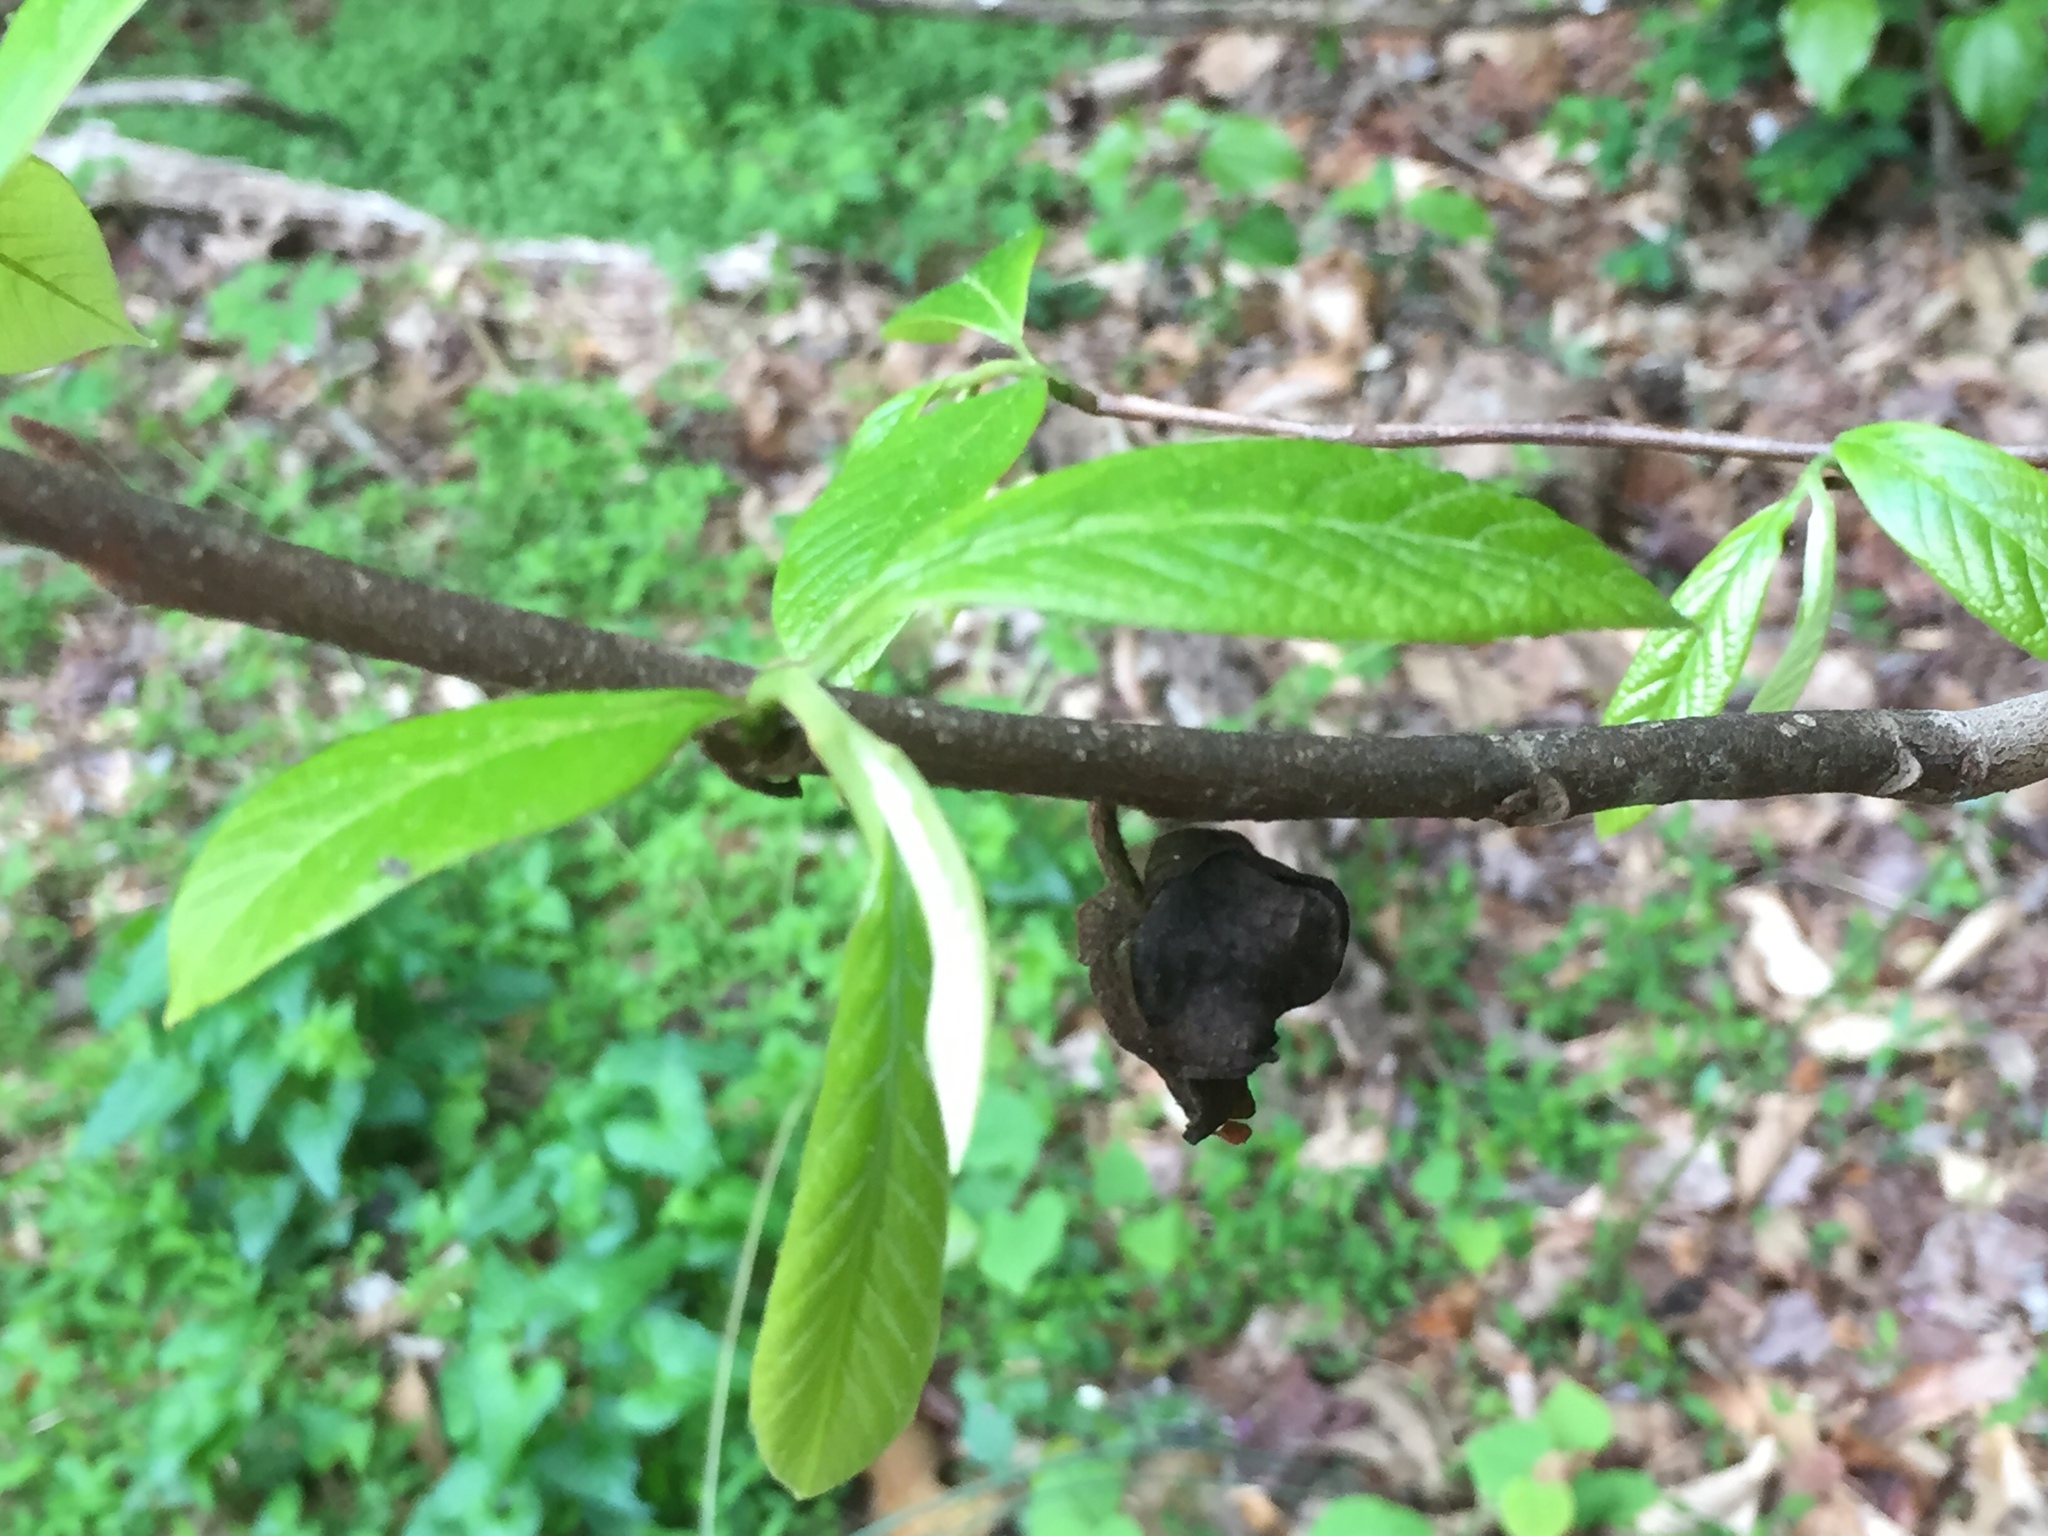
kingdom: Plantae
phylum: Tracheophyta
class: Magnoliopsida
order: Magnoliales
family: Annonaceae
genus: Asimina
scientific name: Asimina triloba
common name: Dog-banana
